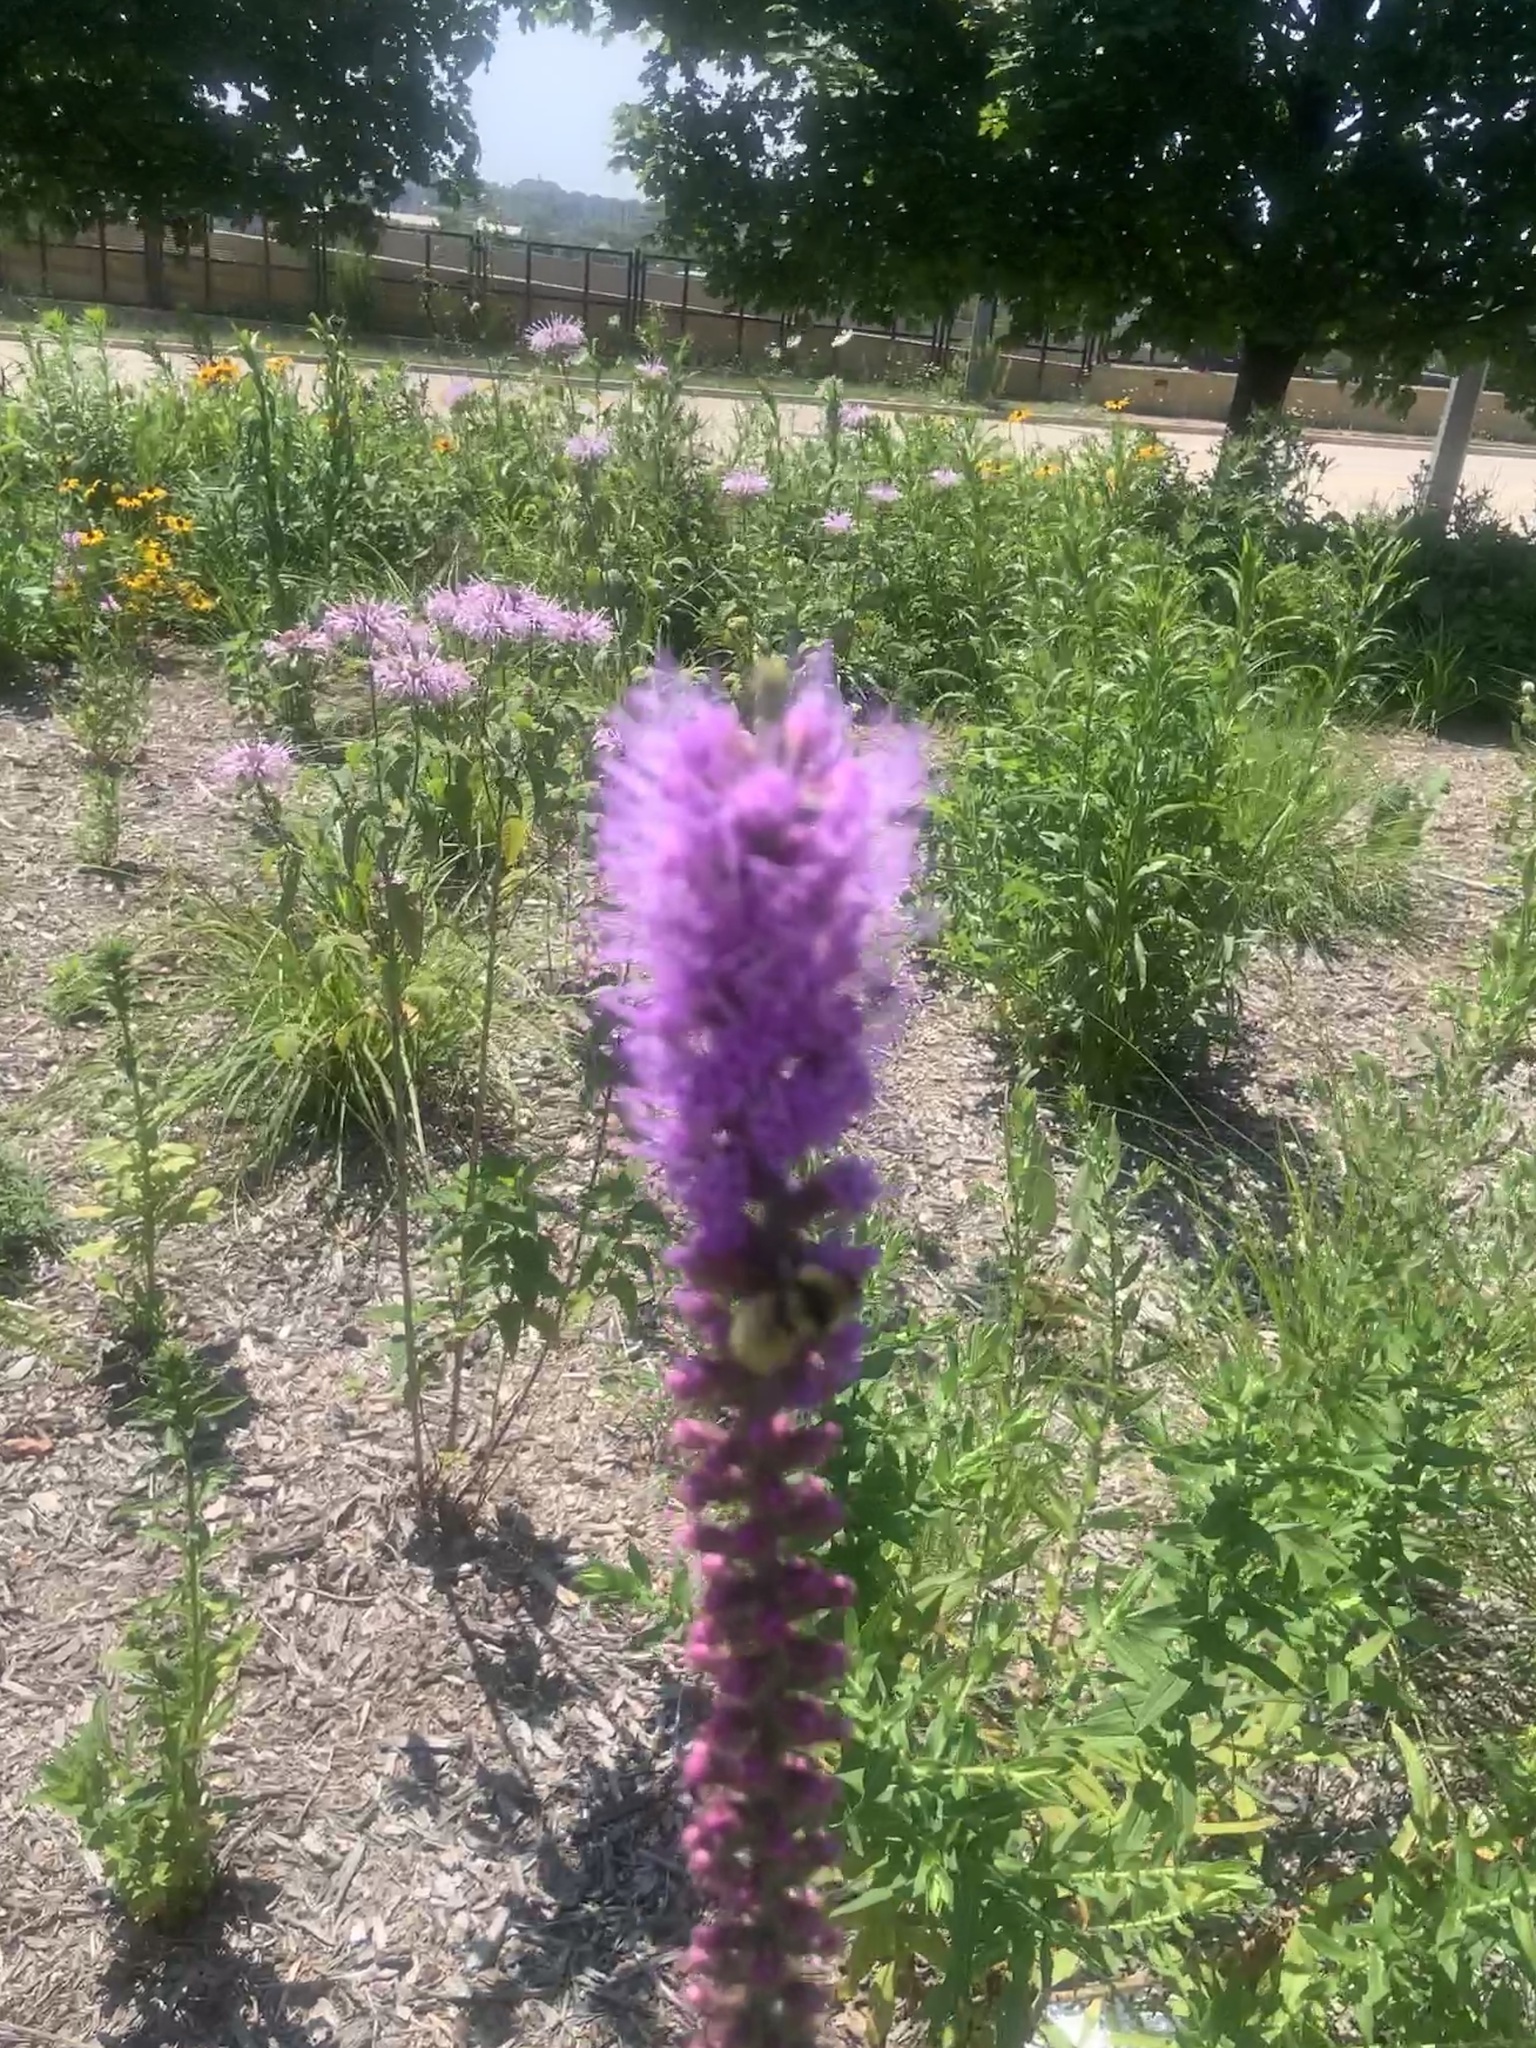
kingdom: Animalia
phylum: Arthropoda
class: Insecta
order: Hymenoptera
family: Apidae
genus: Bombus
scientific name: Bombus fervidus
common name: Yellow bumble bee
